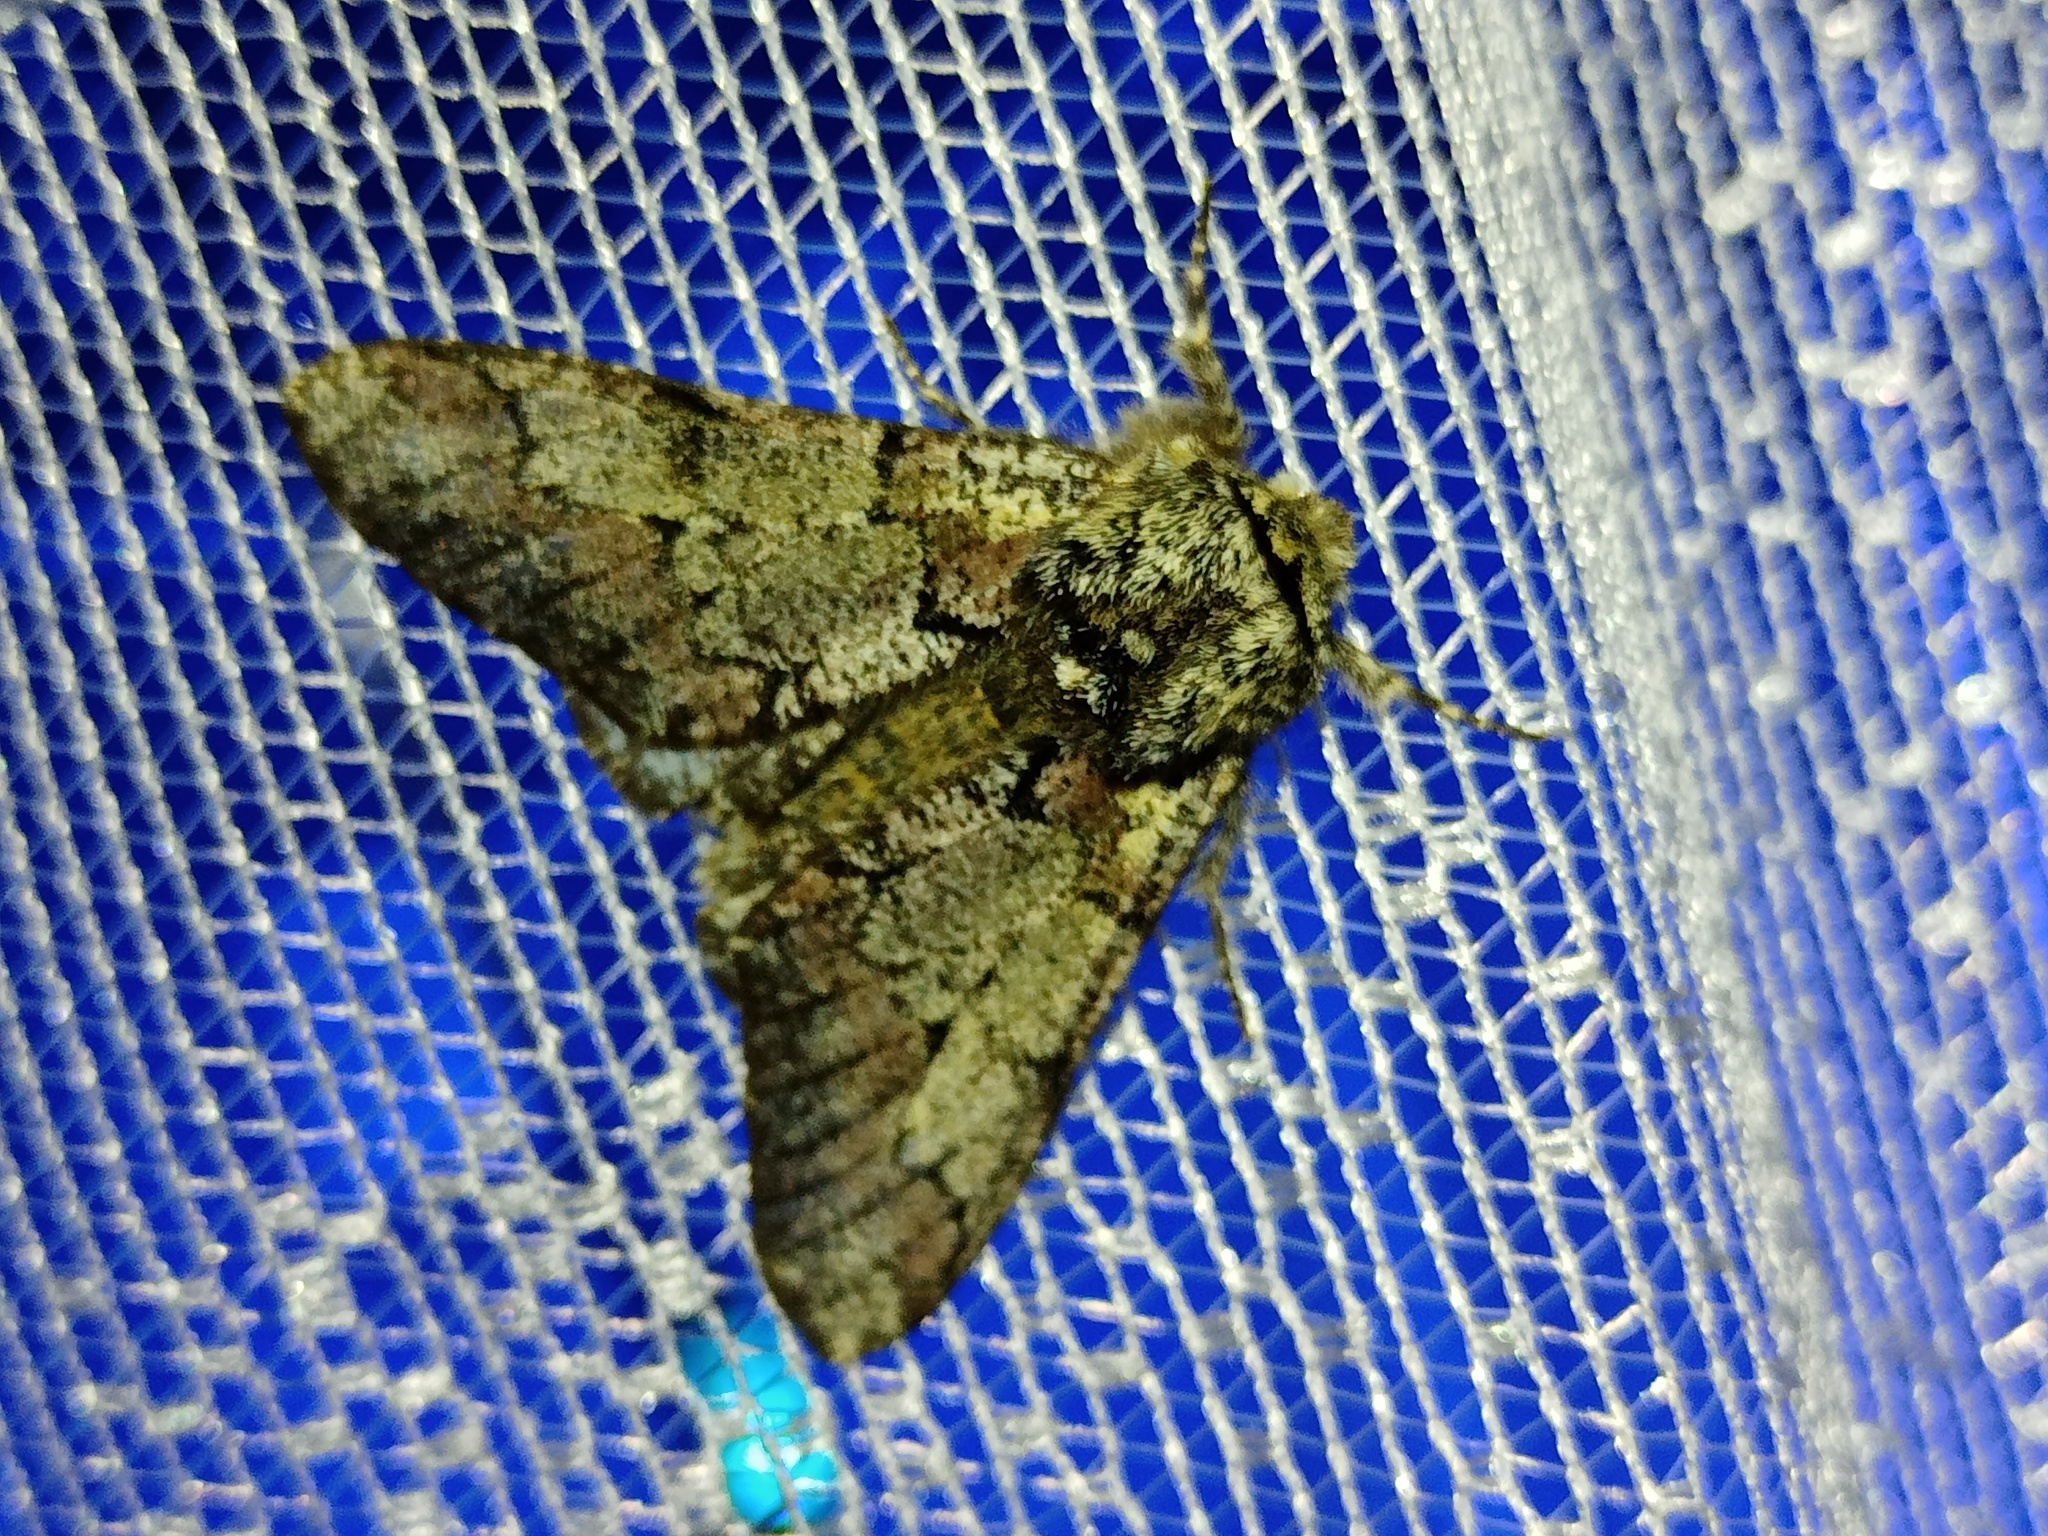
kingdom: Animalia
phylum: Arthropoda
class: Insecta
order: Lepidoptera
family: Geometridae
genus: Biston
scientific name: Biston strataria
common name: Oak beauty
